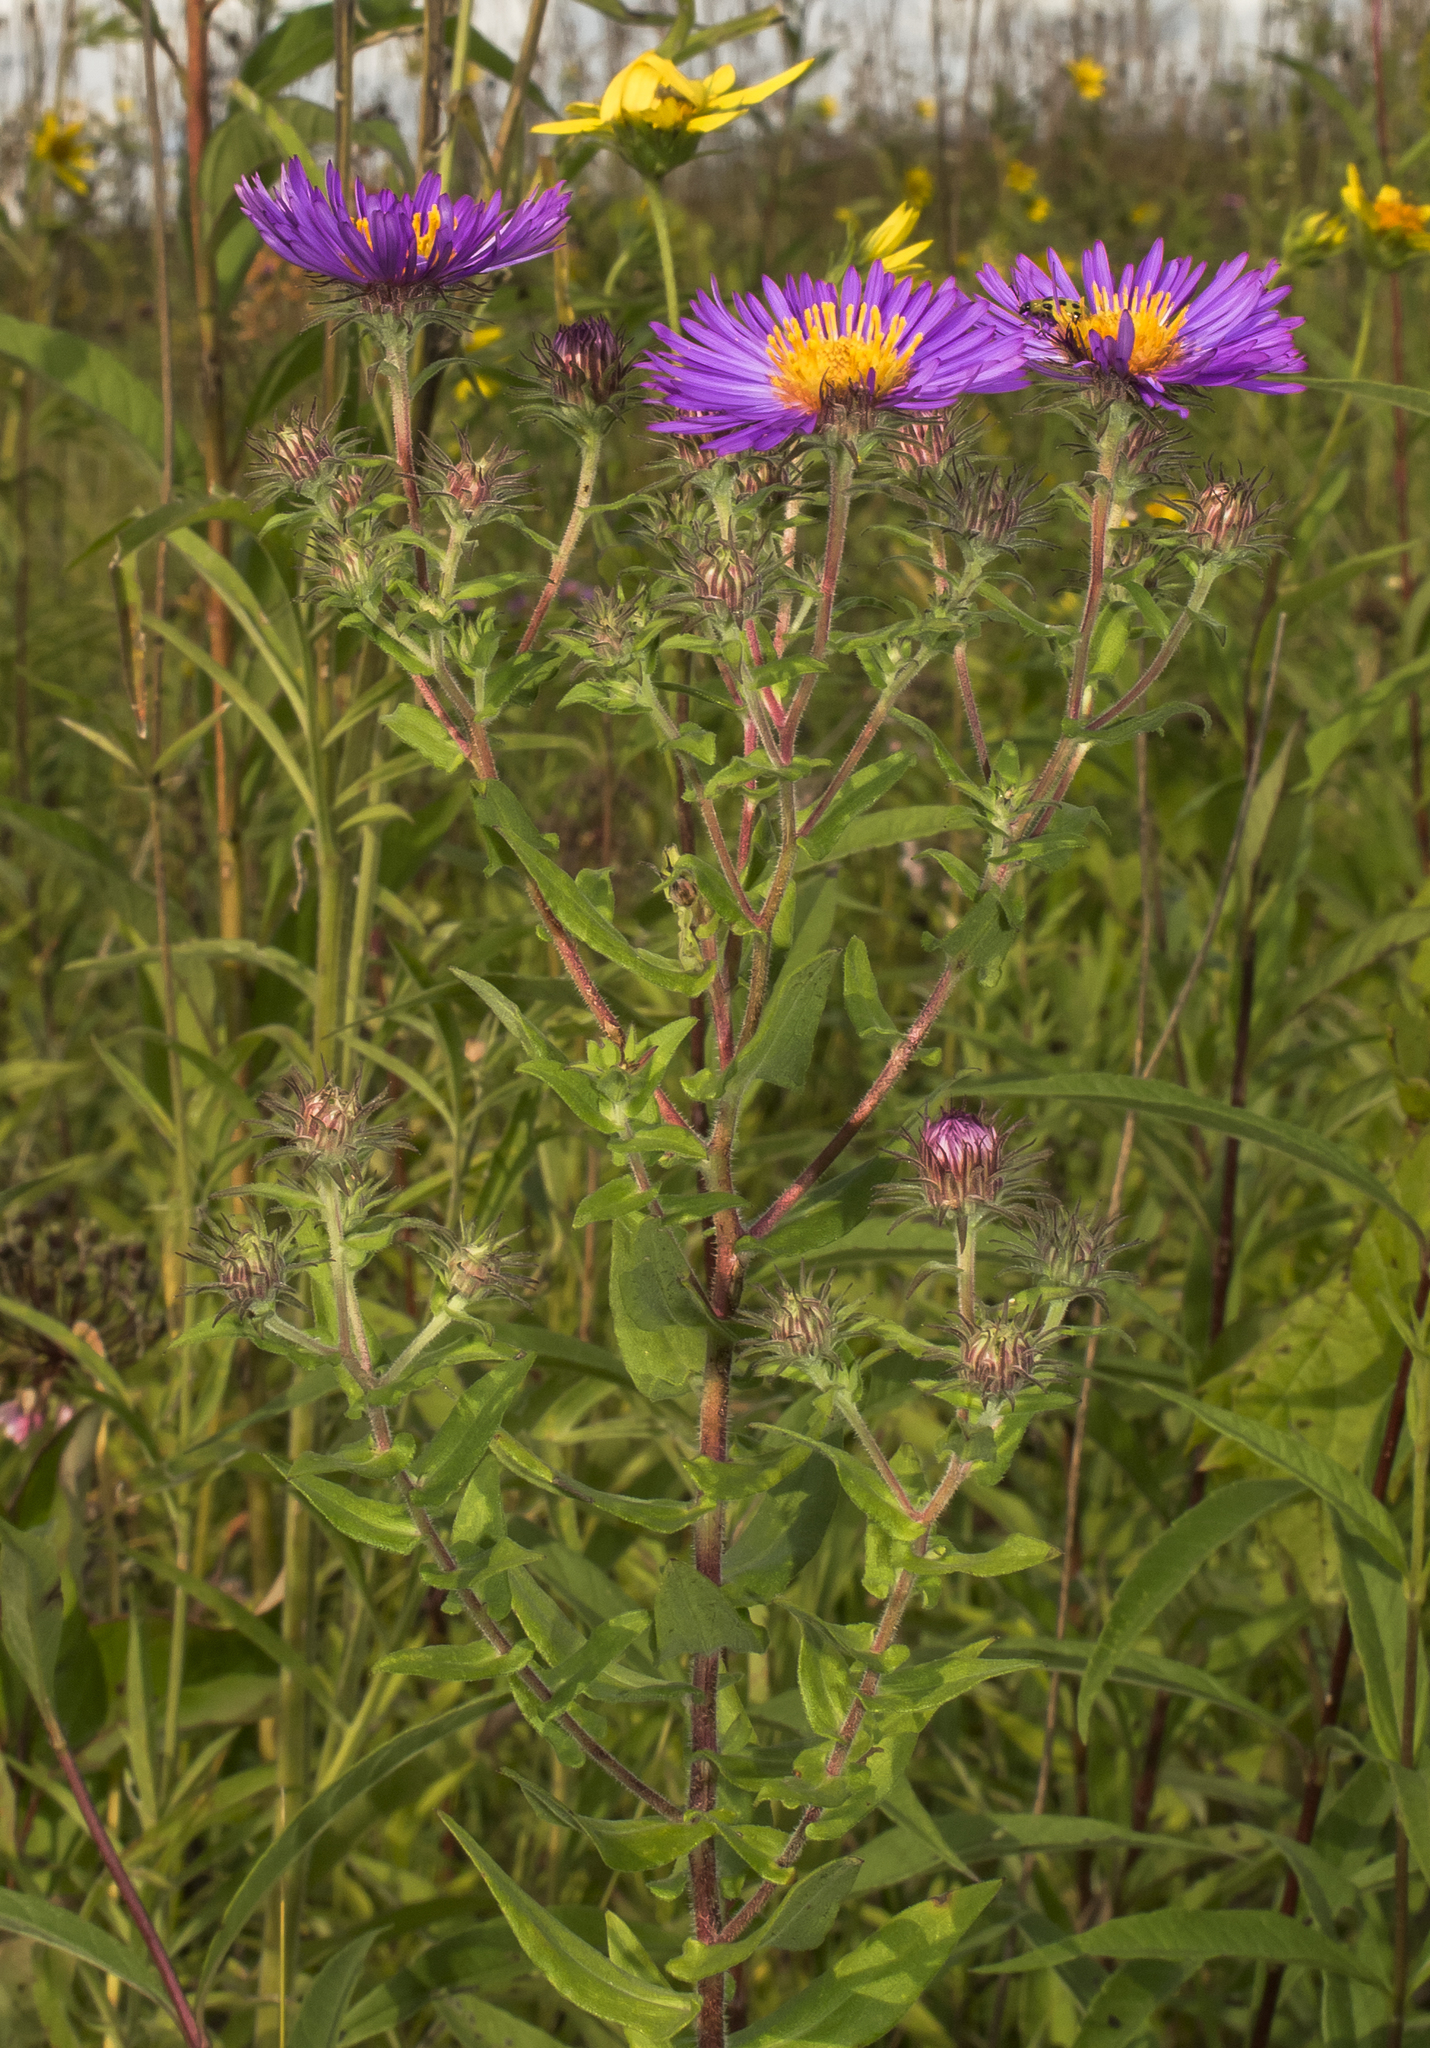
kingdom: Plantae
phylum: Tracheophyta
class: Magnoliopsida
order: Asterales
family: Asteraceae
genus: Symphyotrichum
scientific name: Symphyotrichum novae-angliae
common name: Michaelmas daisy
